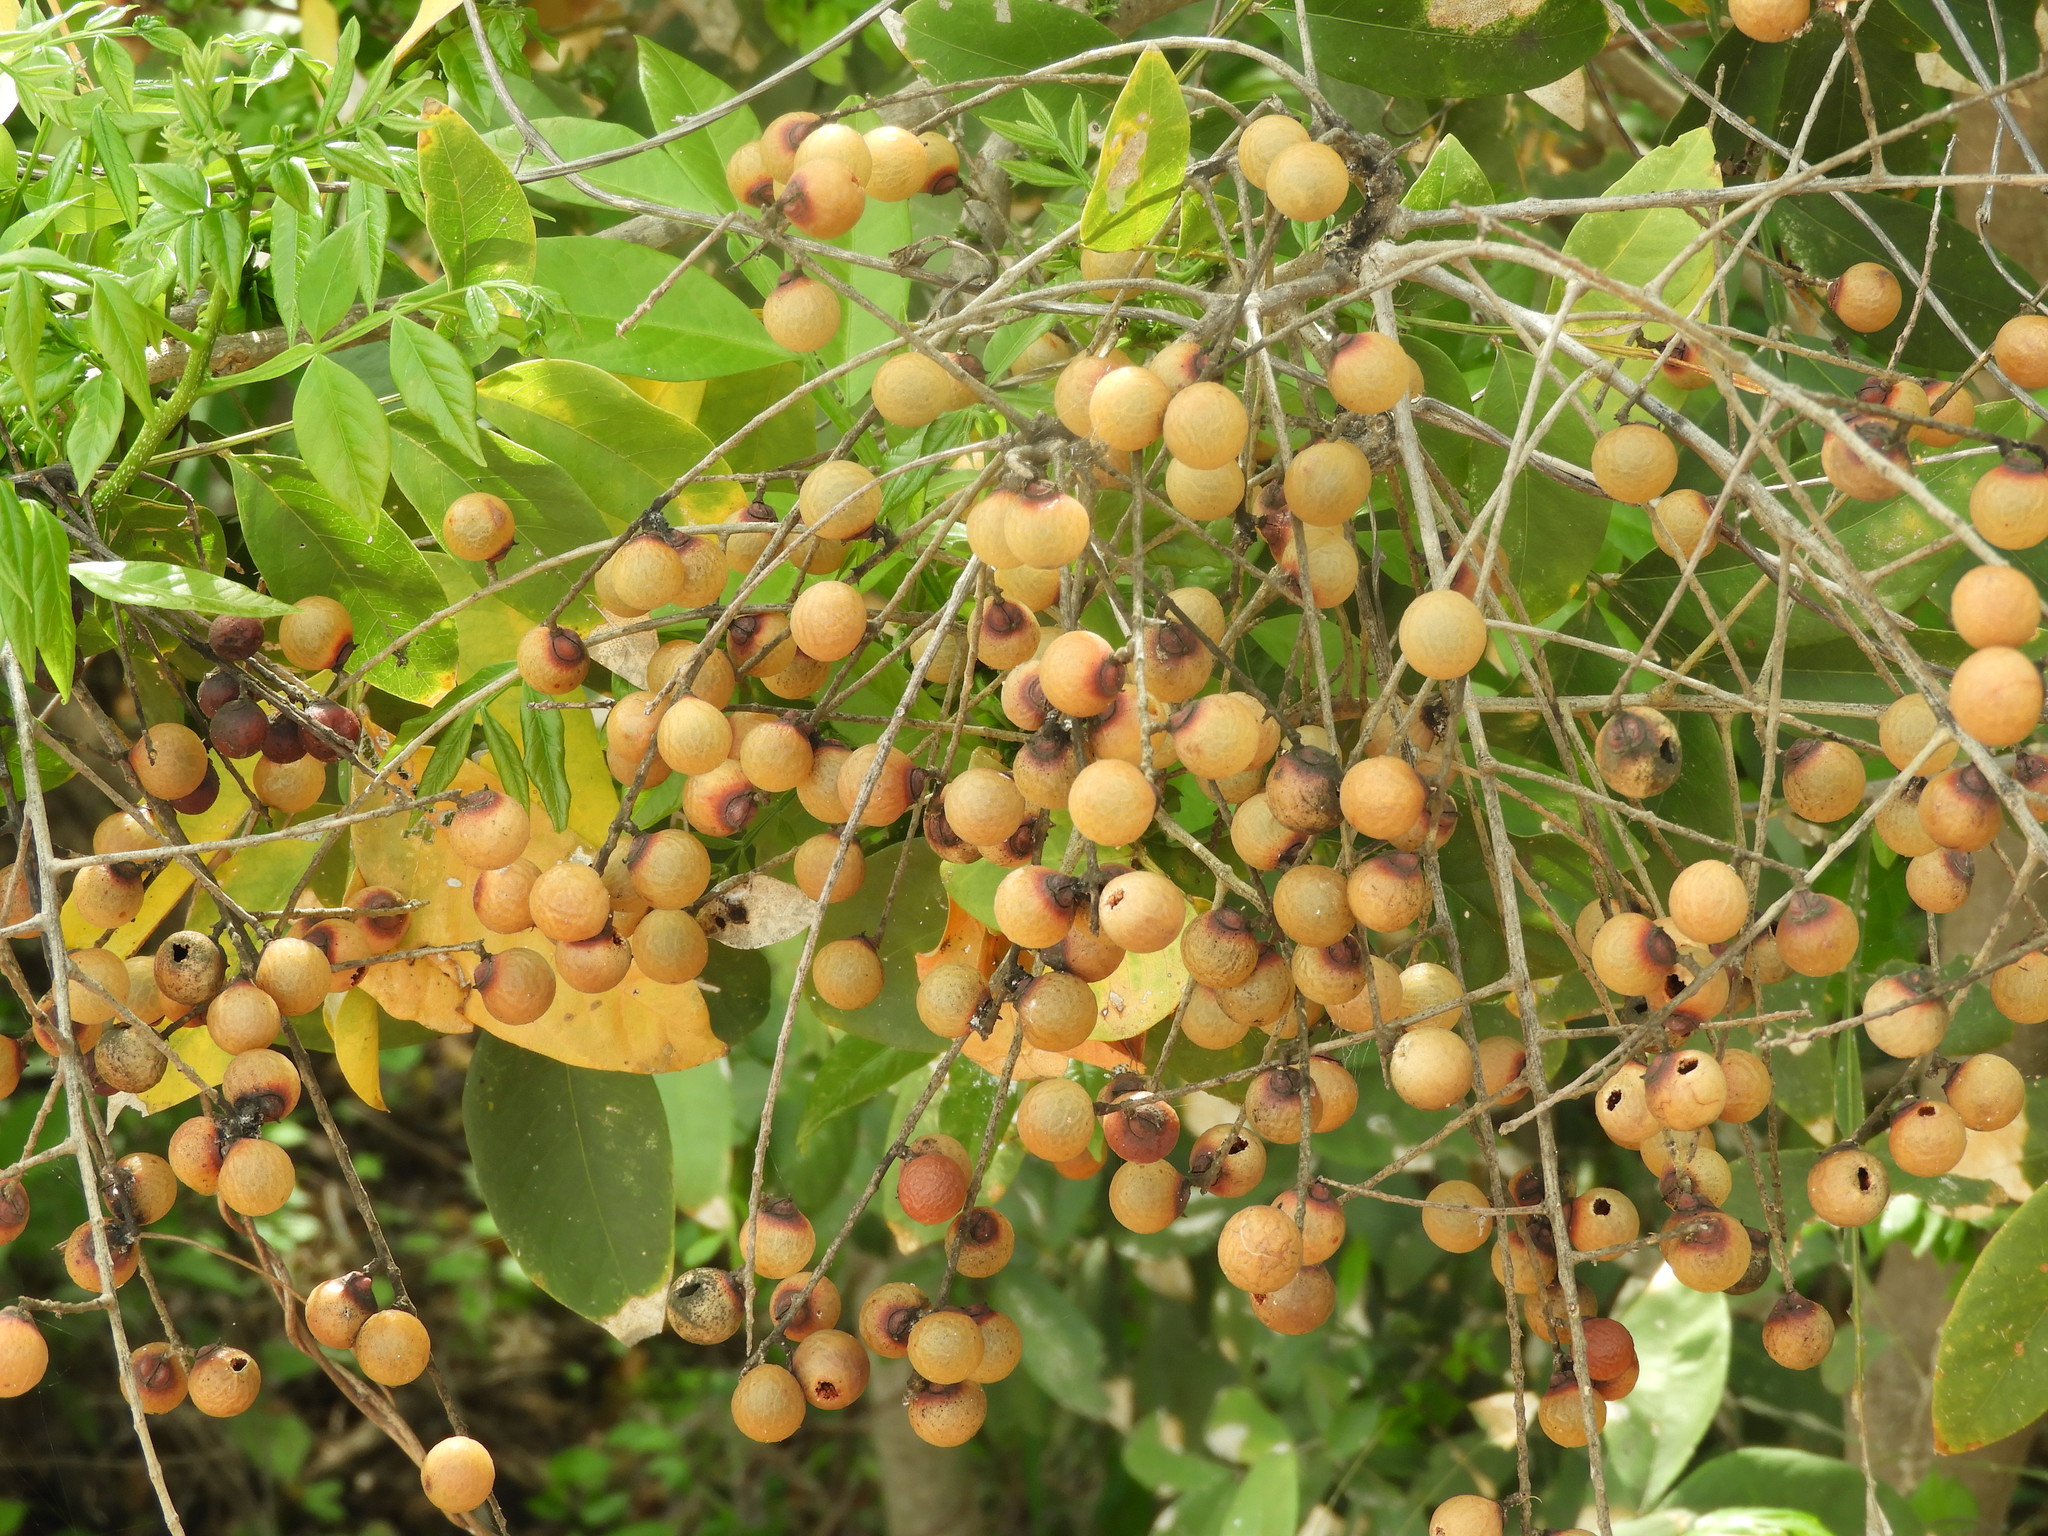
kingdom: Plantae
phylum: Tracheophyta
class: Magnoliopsida
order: Sapindales
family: Sapindaceae
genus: Sapindus
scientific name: Sapindus drummondii
